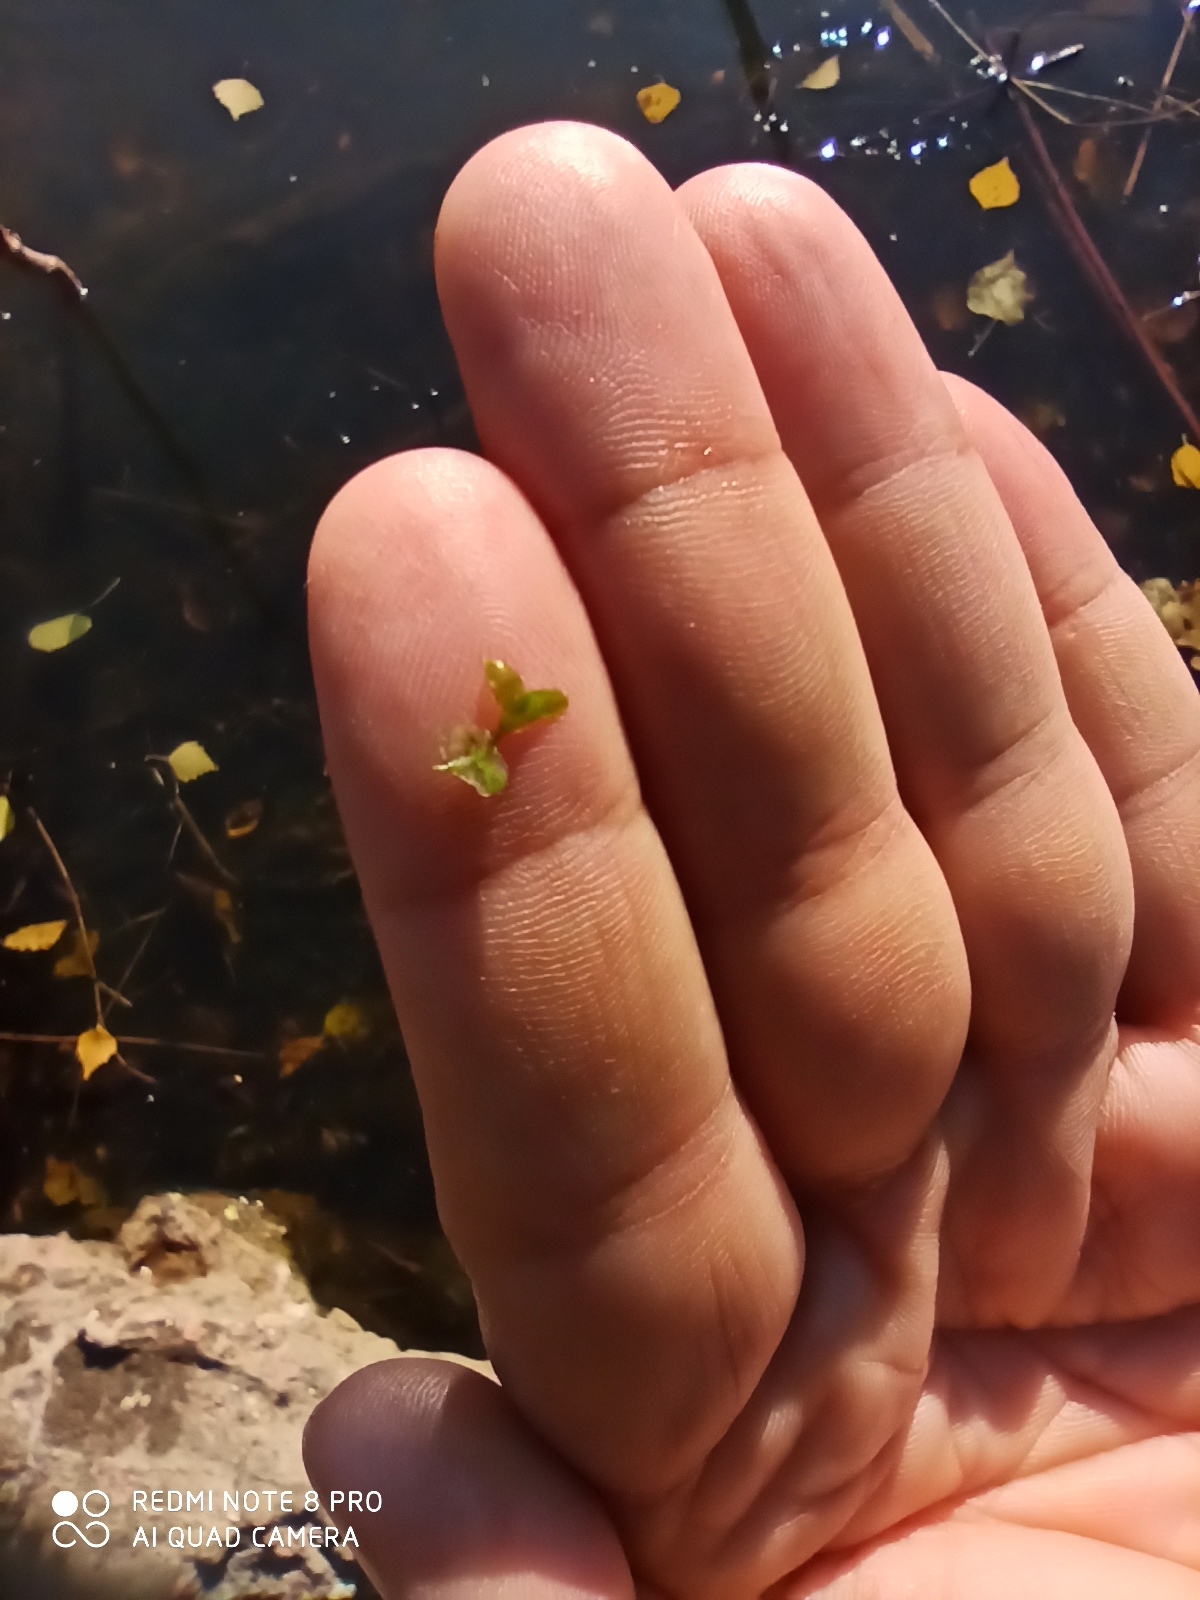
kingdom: Plantae
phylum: Tracheophyta
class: Liliopsida
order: Alismatales
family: Araceae
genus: Lemna
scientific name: Lemna trisulca
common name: Ivy-leaved duckweed
